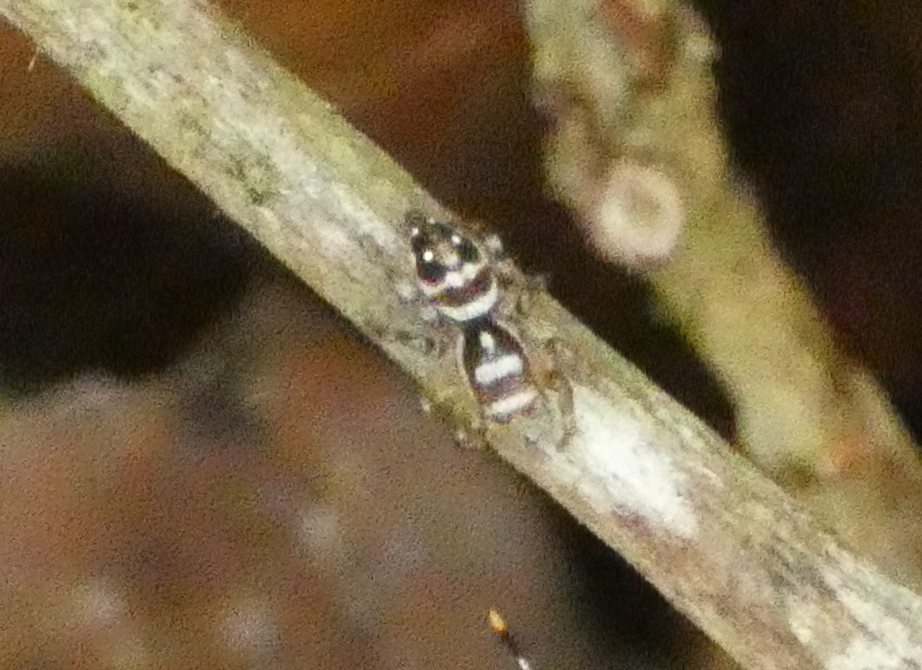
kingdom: Animalia
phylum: Arthropoda
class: Arachnida
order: Araneae
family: Salticidae
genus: Nycerella
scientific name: Nycerella aprica
